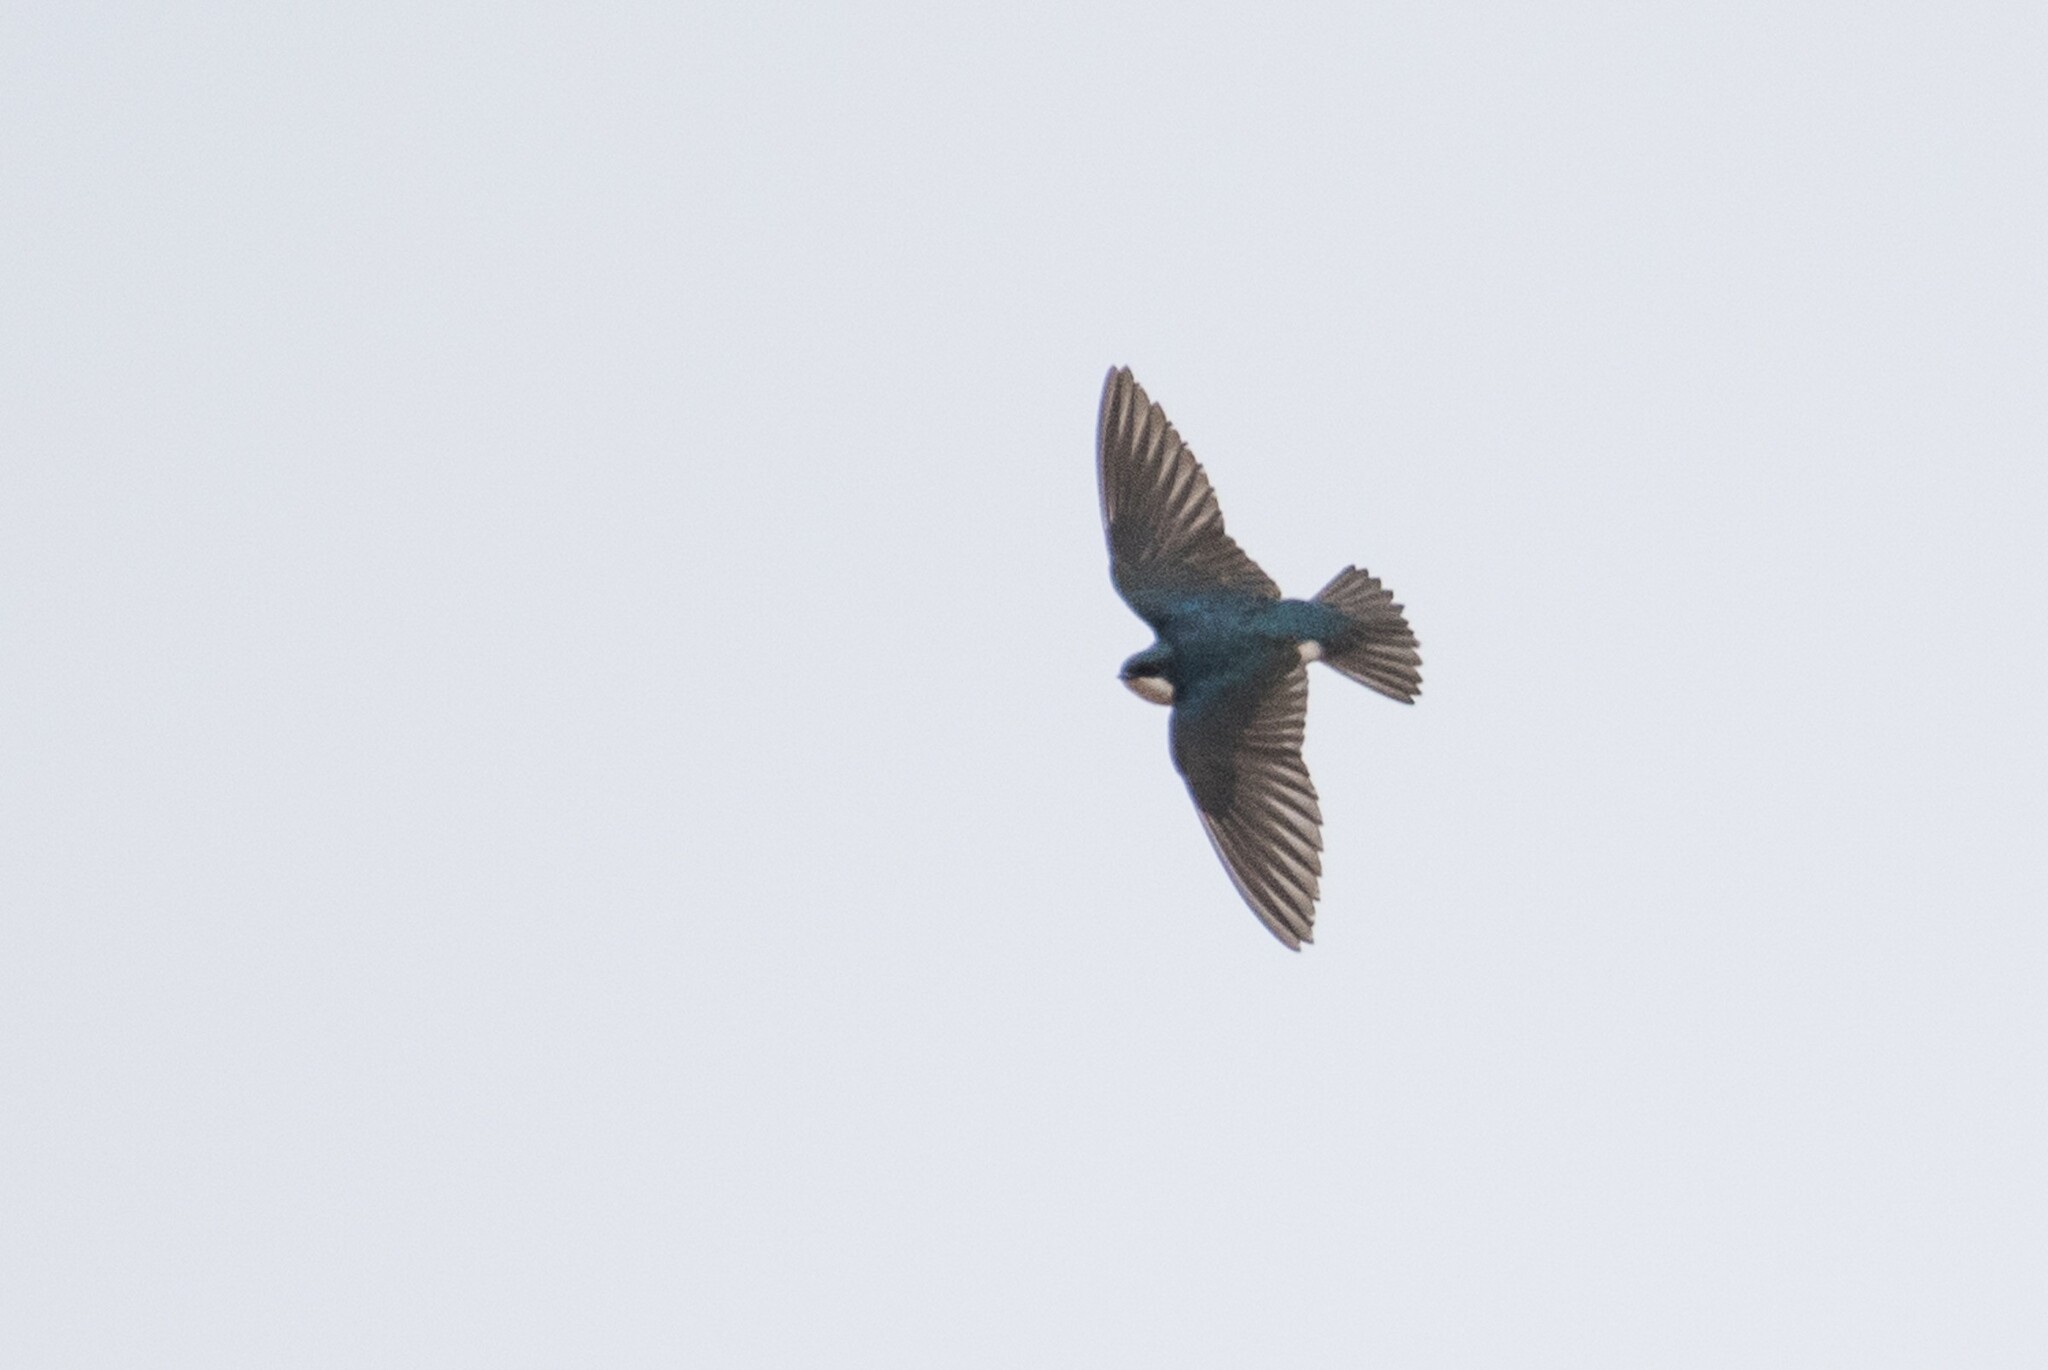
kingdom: Animalia
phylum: Chordata
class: Aves
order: Passeriformes
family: Hirundinidae
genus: Tachycineta
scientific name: Tachycineta bicolor
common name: Tree swallow
